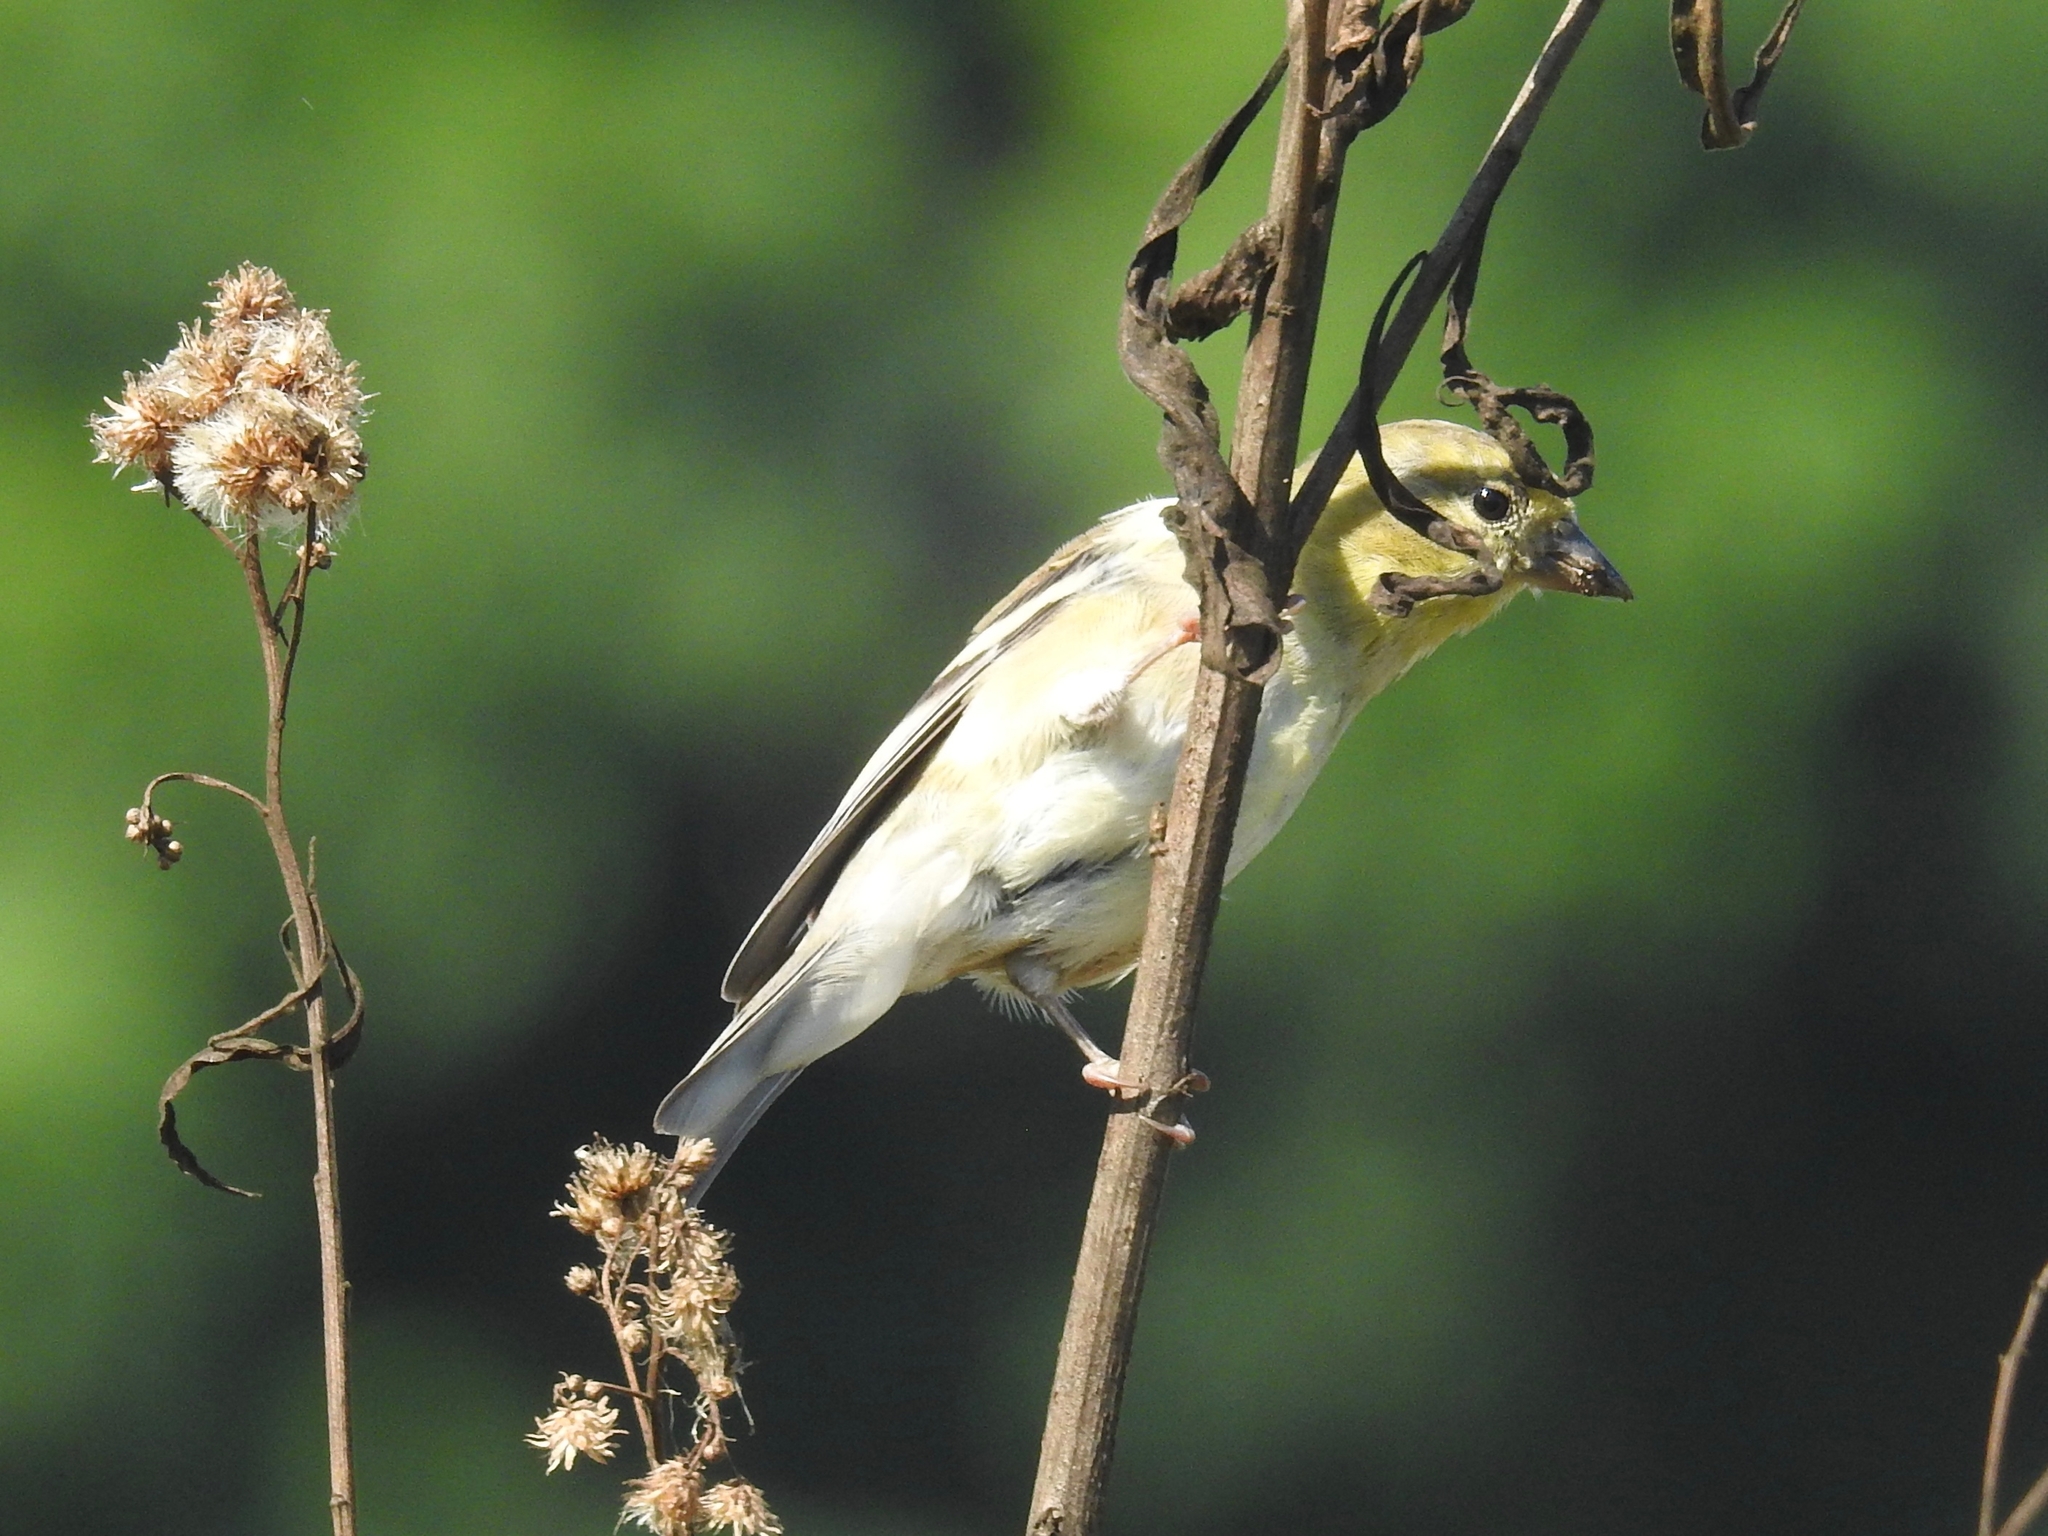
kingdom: Animalia
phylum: Chordata
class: Aves
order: Passeriformes
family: Fringillidae
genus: Spinus
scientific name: Spinus tristis
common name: American goldfinch
